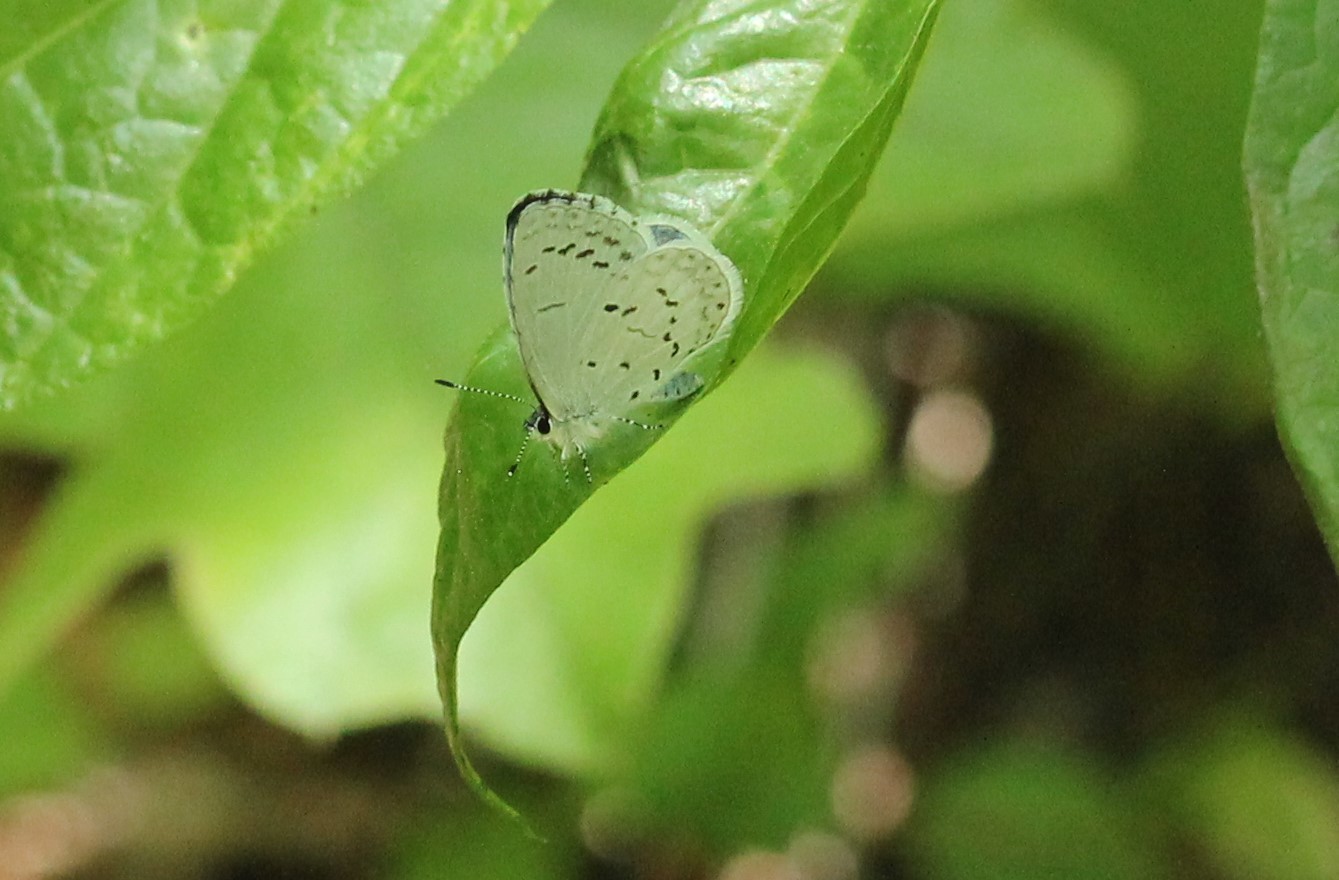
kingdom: Animalia
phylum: Arthropoda
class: Insecta
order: Lepidoptera
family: Lycaenidae
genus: Cyaniris
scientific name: Cyaniris neglecta
